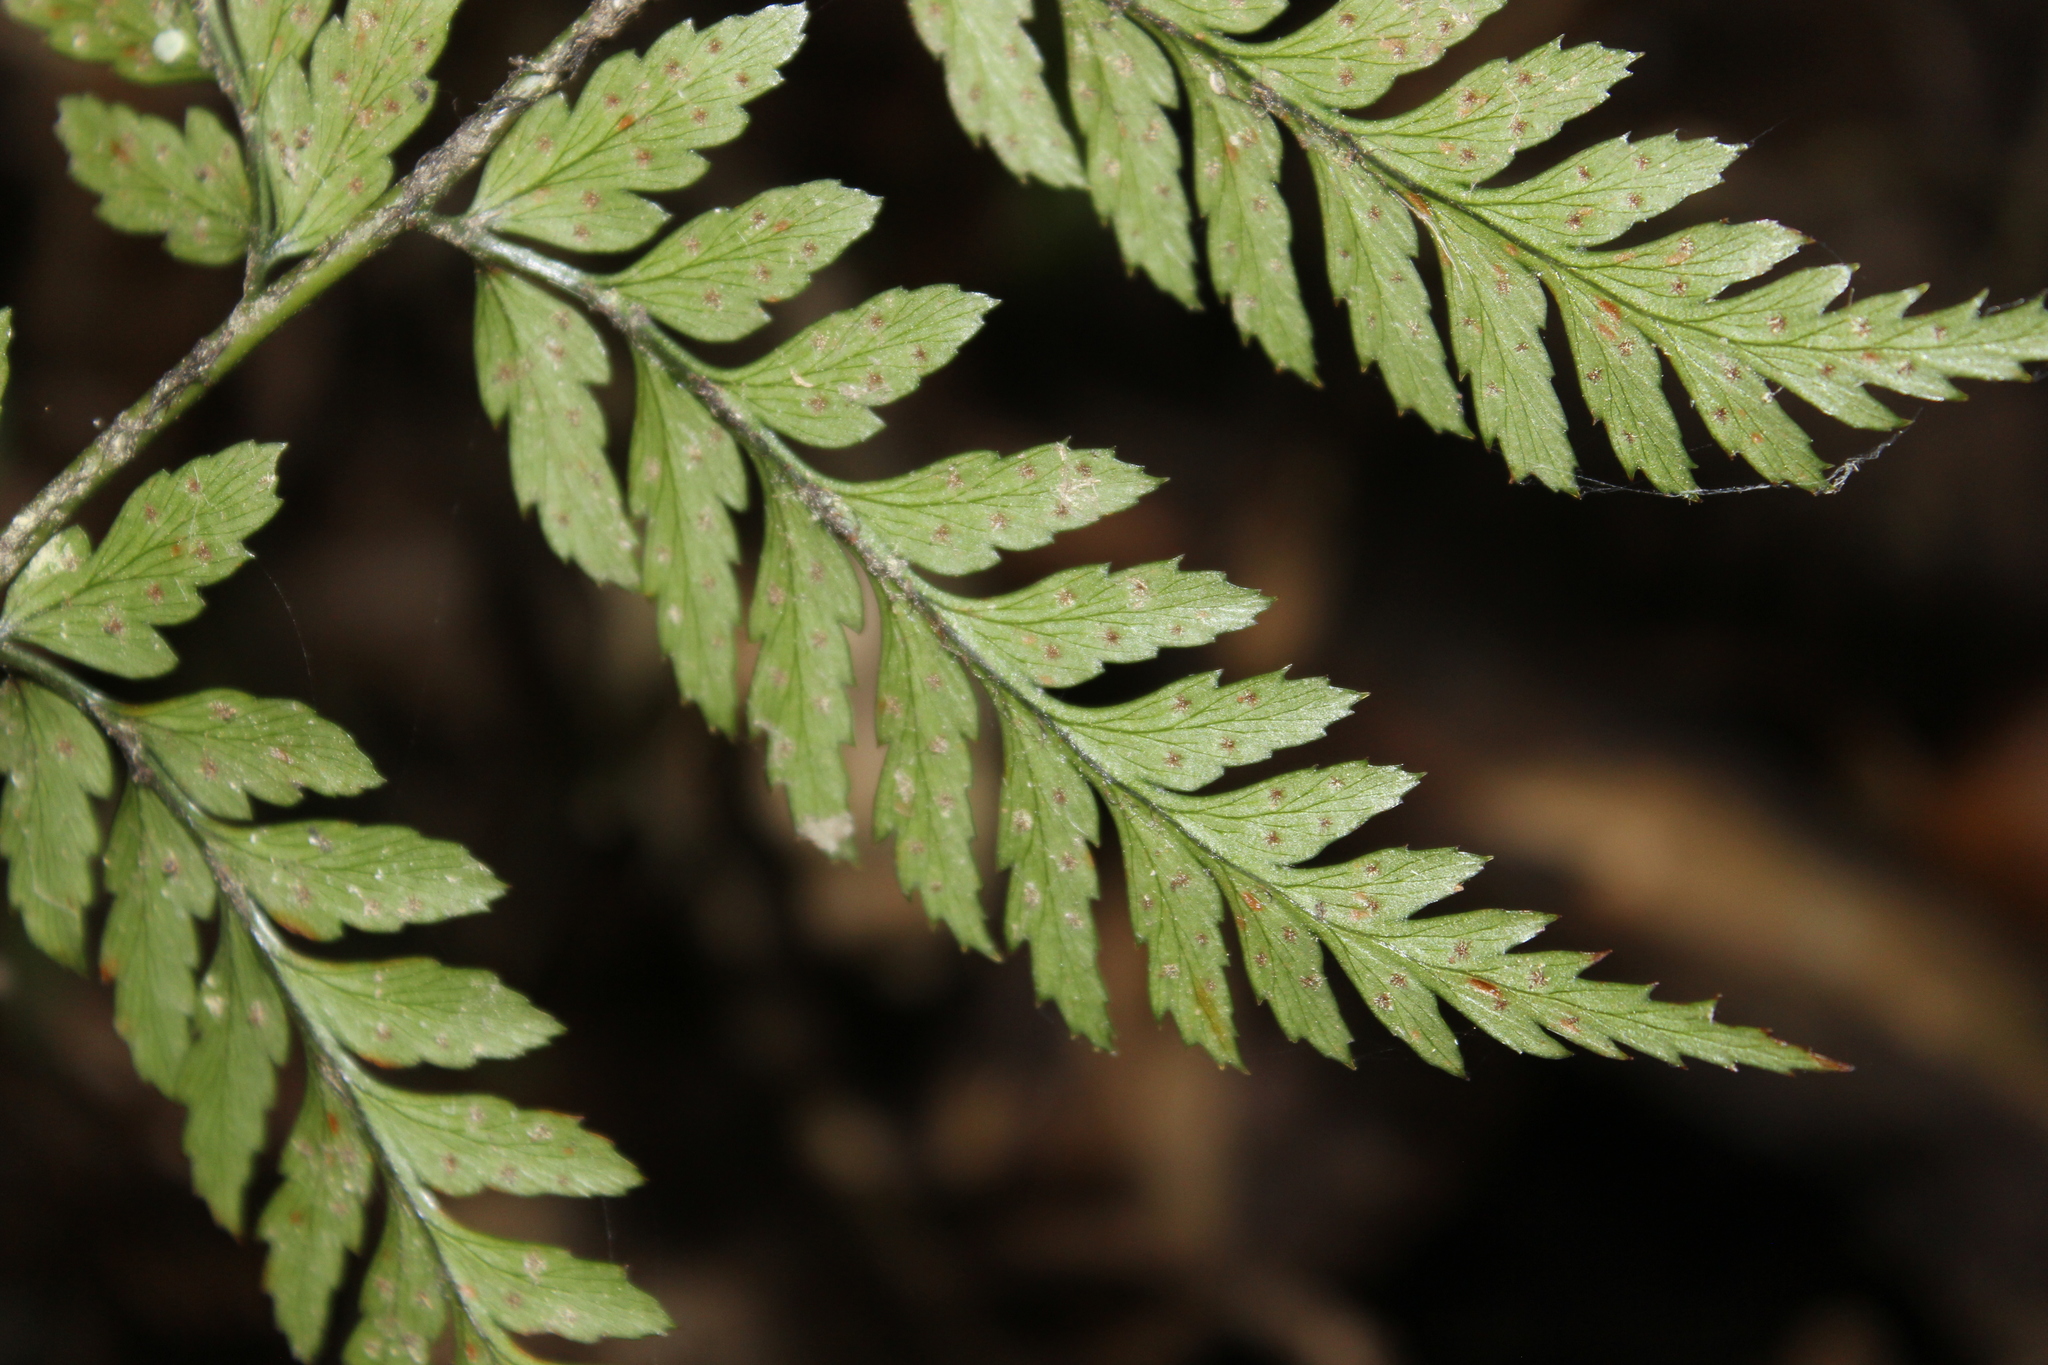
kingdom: Plantae
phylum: Tracheophyta
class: Polypodiopsida
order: Polypodiales
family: Dryopteridaceae
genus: Polystichum
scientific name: Polystichum neozelandicum
